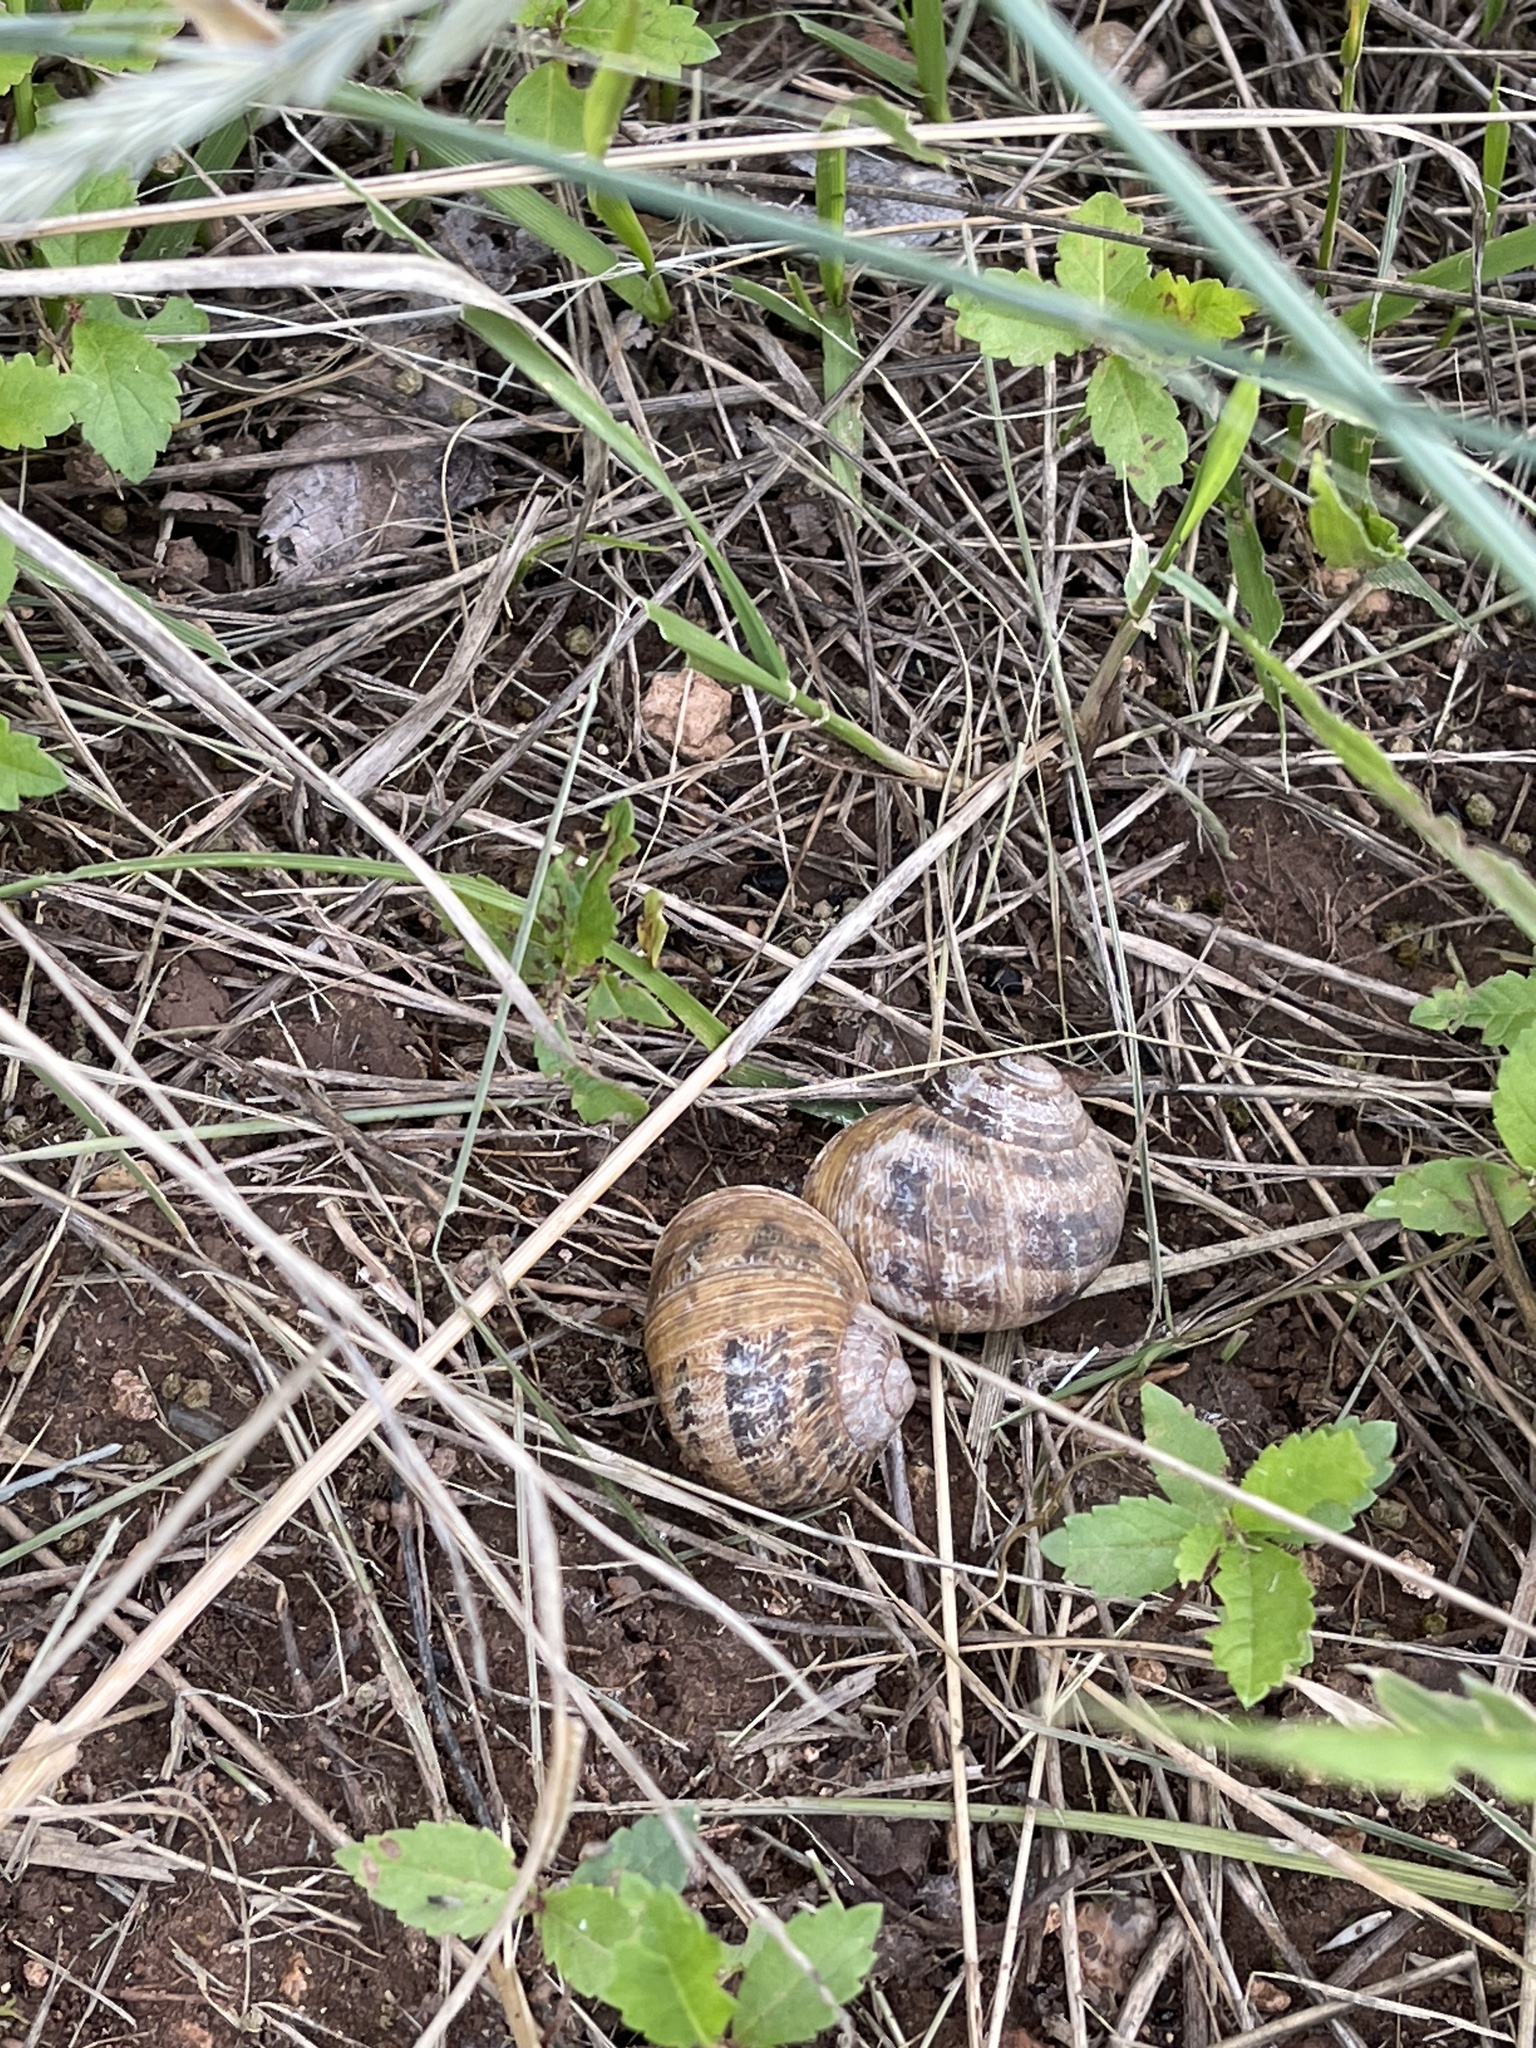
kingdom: Animalia
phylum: Mollusca
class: Gastropoda
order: Stylommatophora
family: Helicidae
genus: Cornu
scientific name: Cornu aspersum
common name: Brown garden snail
